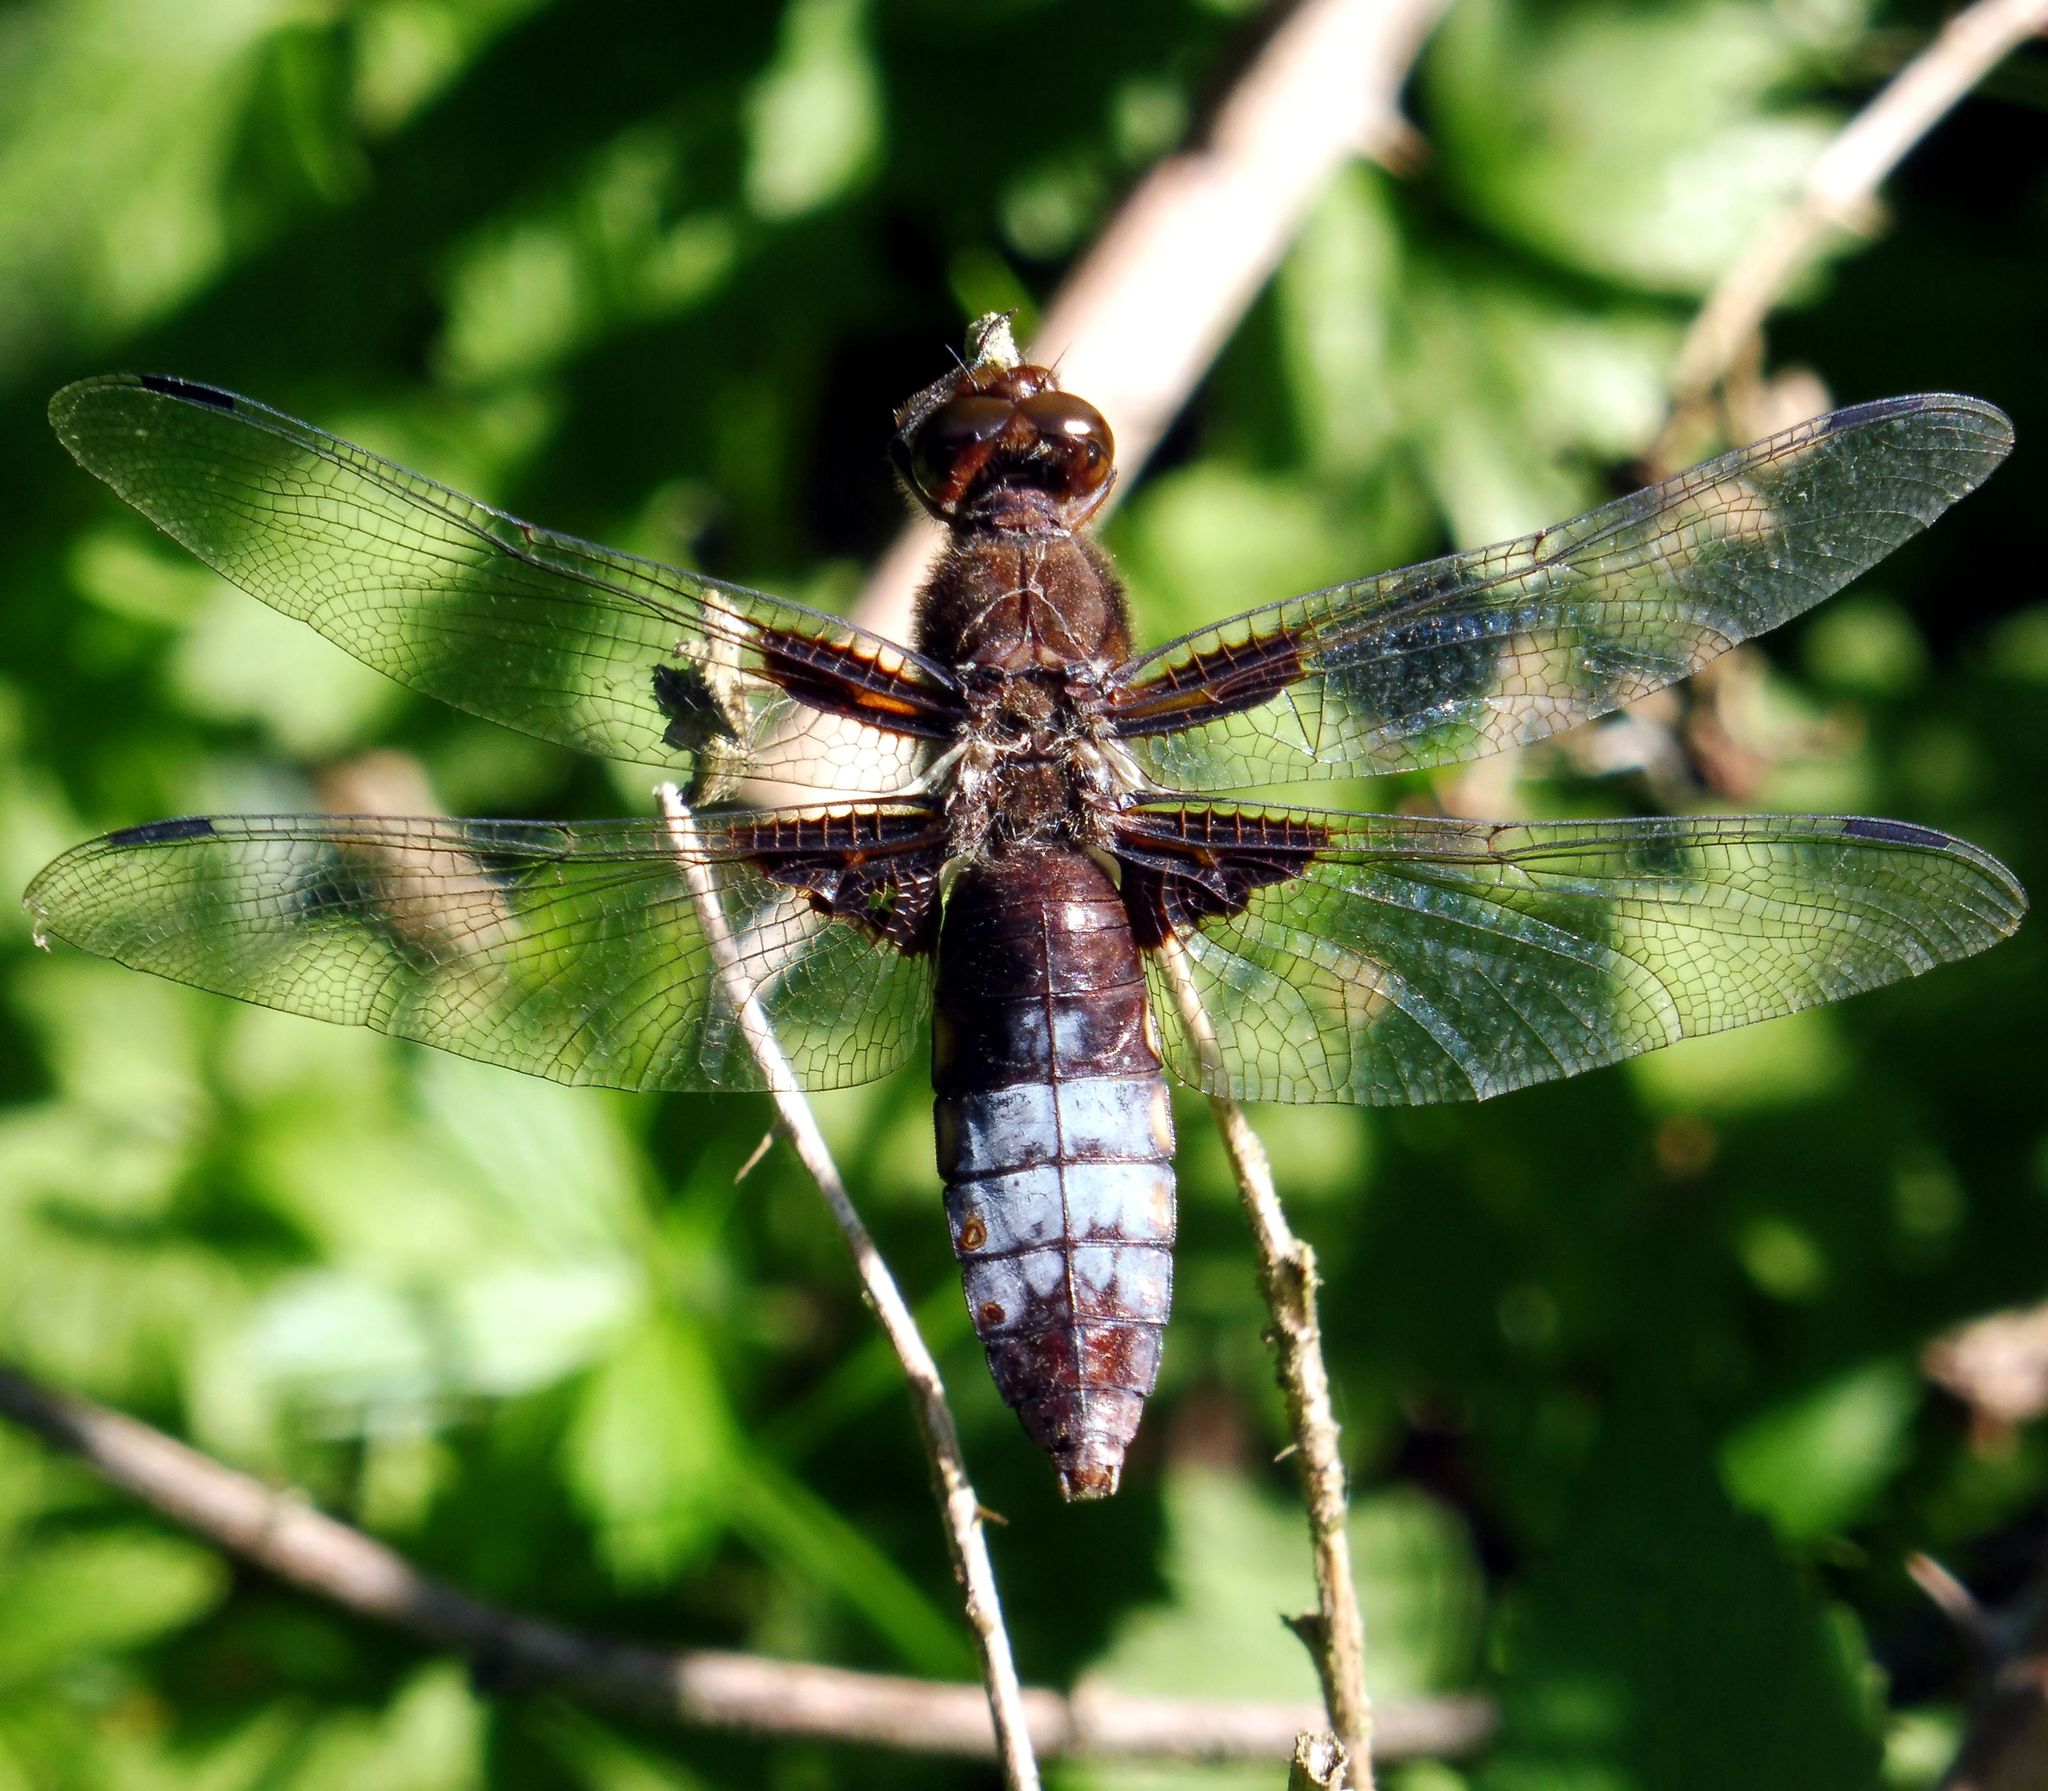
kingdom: Animalia
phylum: Arthropoda
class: Insecta
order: Odonata
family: Libellulidae
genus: Libellula
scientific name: Libellula depressa
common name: Broad-bodied chaser
